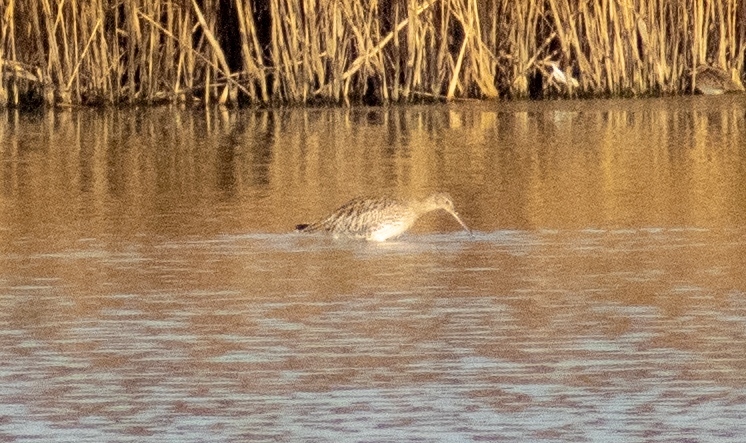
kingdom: Animalia
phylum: Chordata
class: Aves
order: Charadriiformes
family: Scolopacidae
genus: Numenius
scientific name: Numenius arquata
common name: Eurasian curlew
